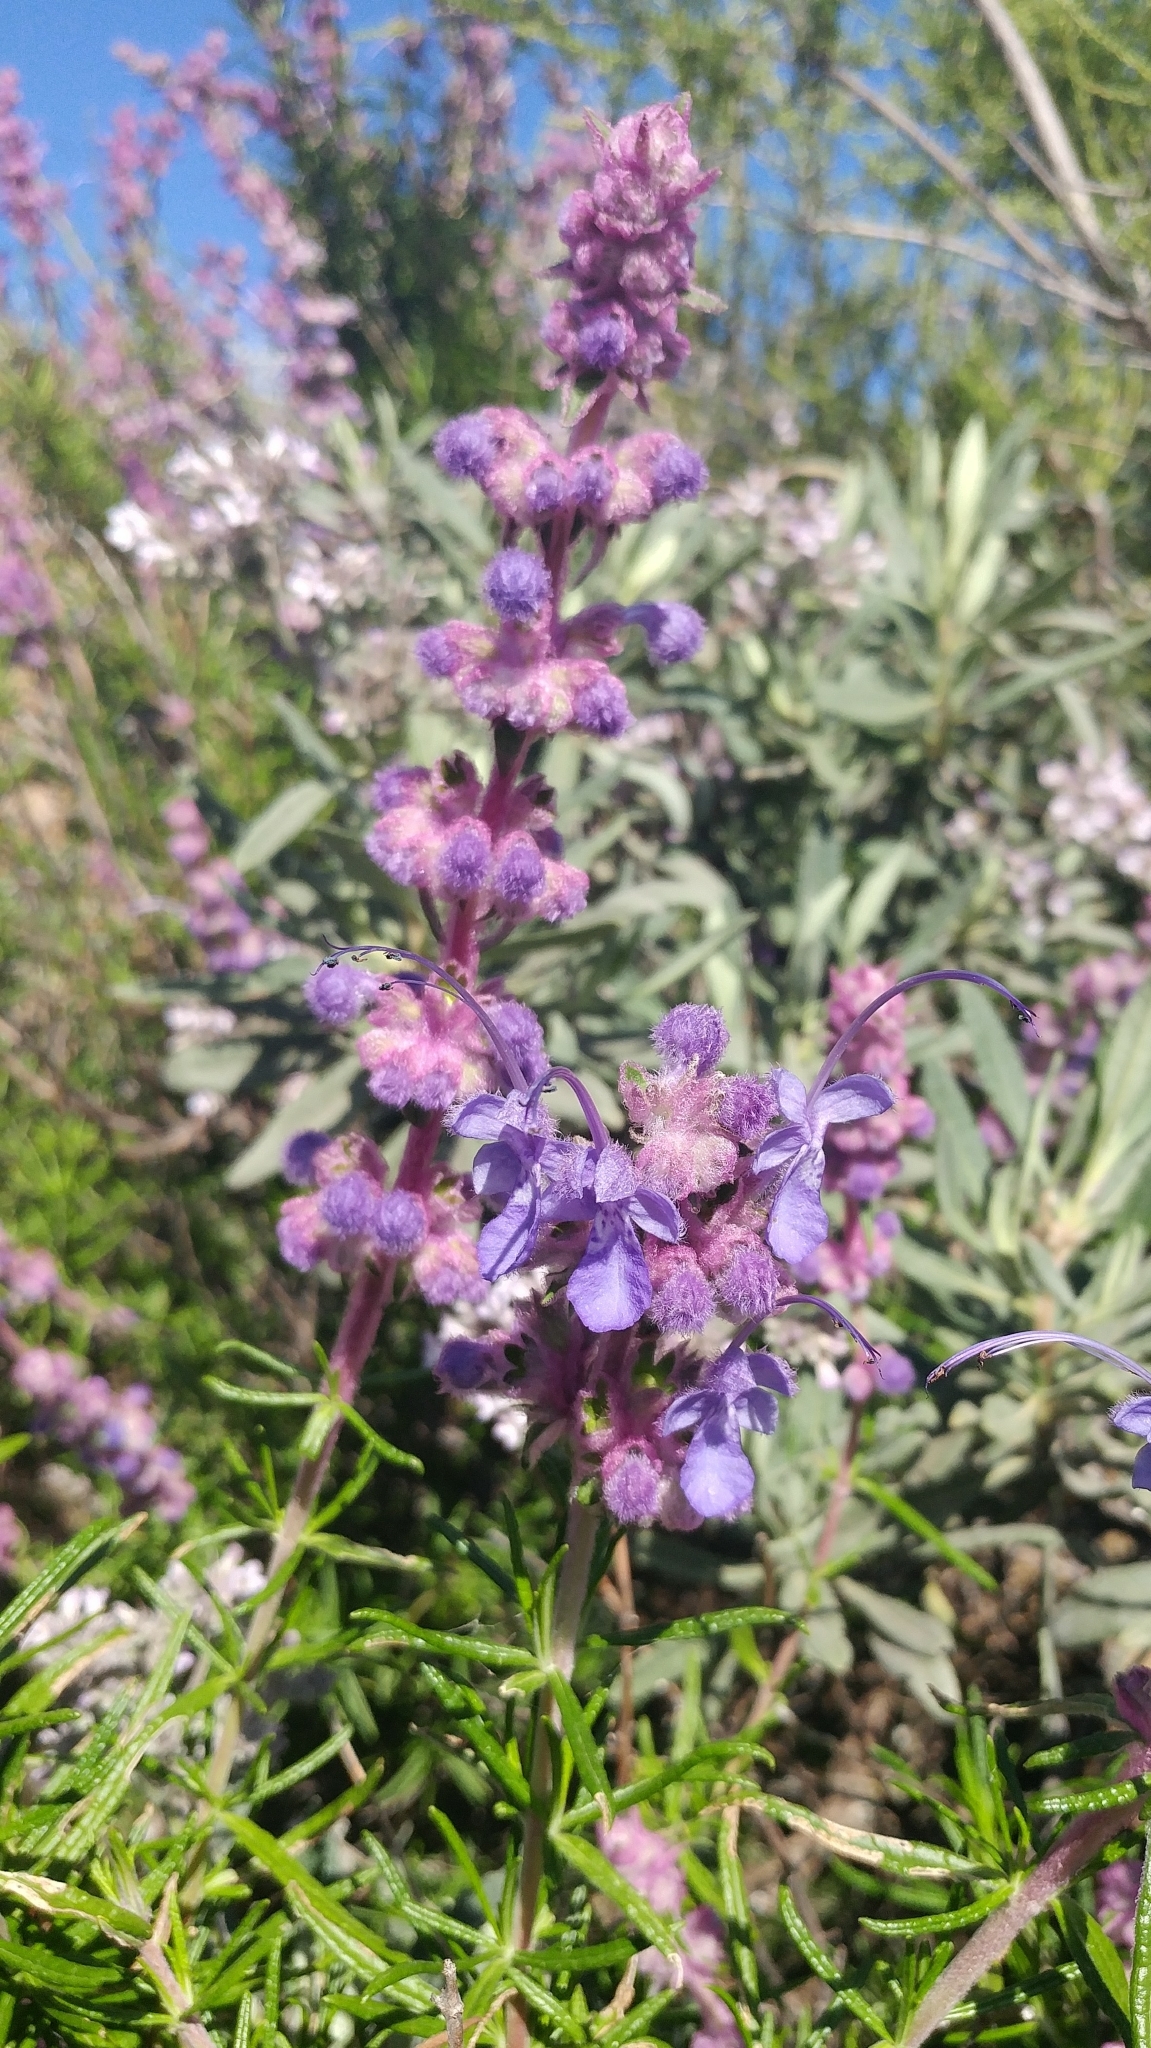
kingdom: Plantae
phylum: Tracheophyta
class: Magnoliopsida
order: Lamiales
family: Lamiaceae
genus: Trichostema
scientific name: Trichostema lanatum
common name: Woolly bluecurls
